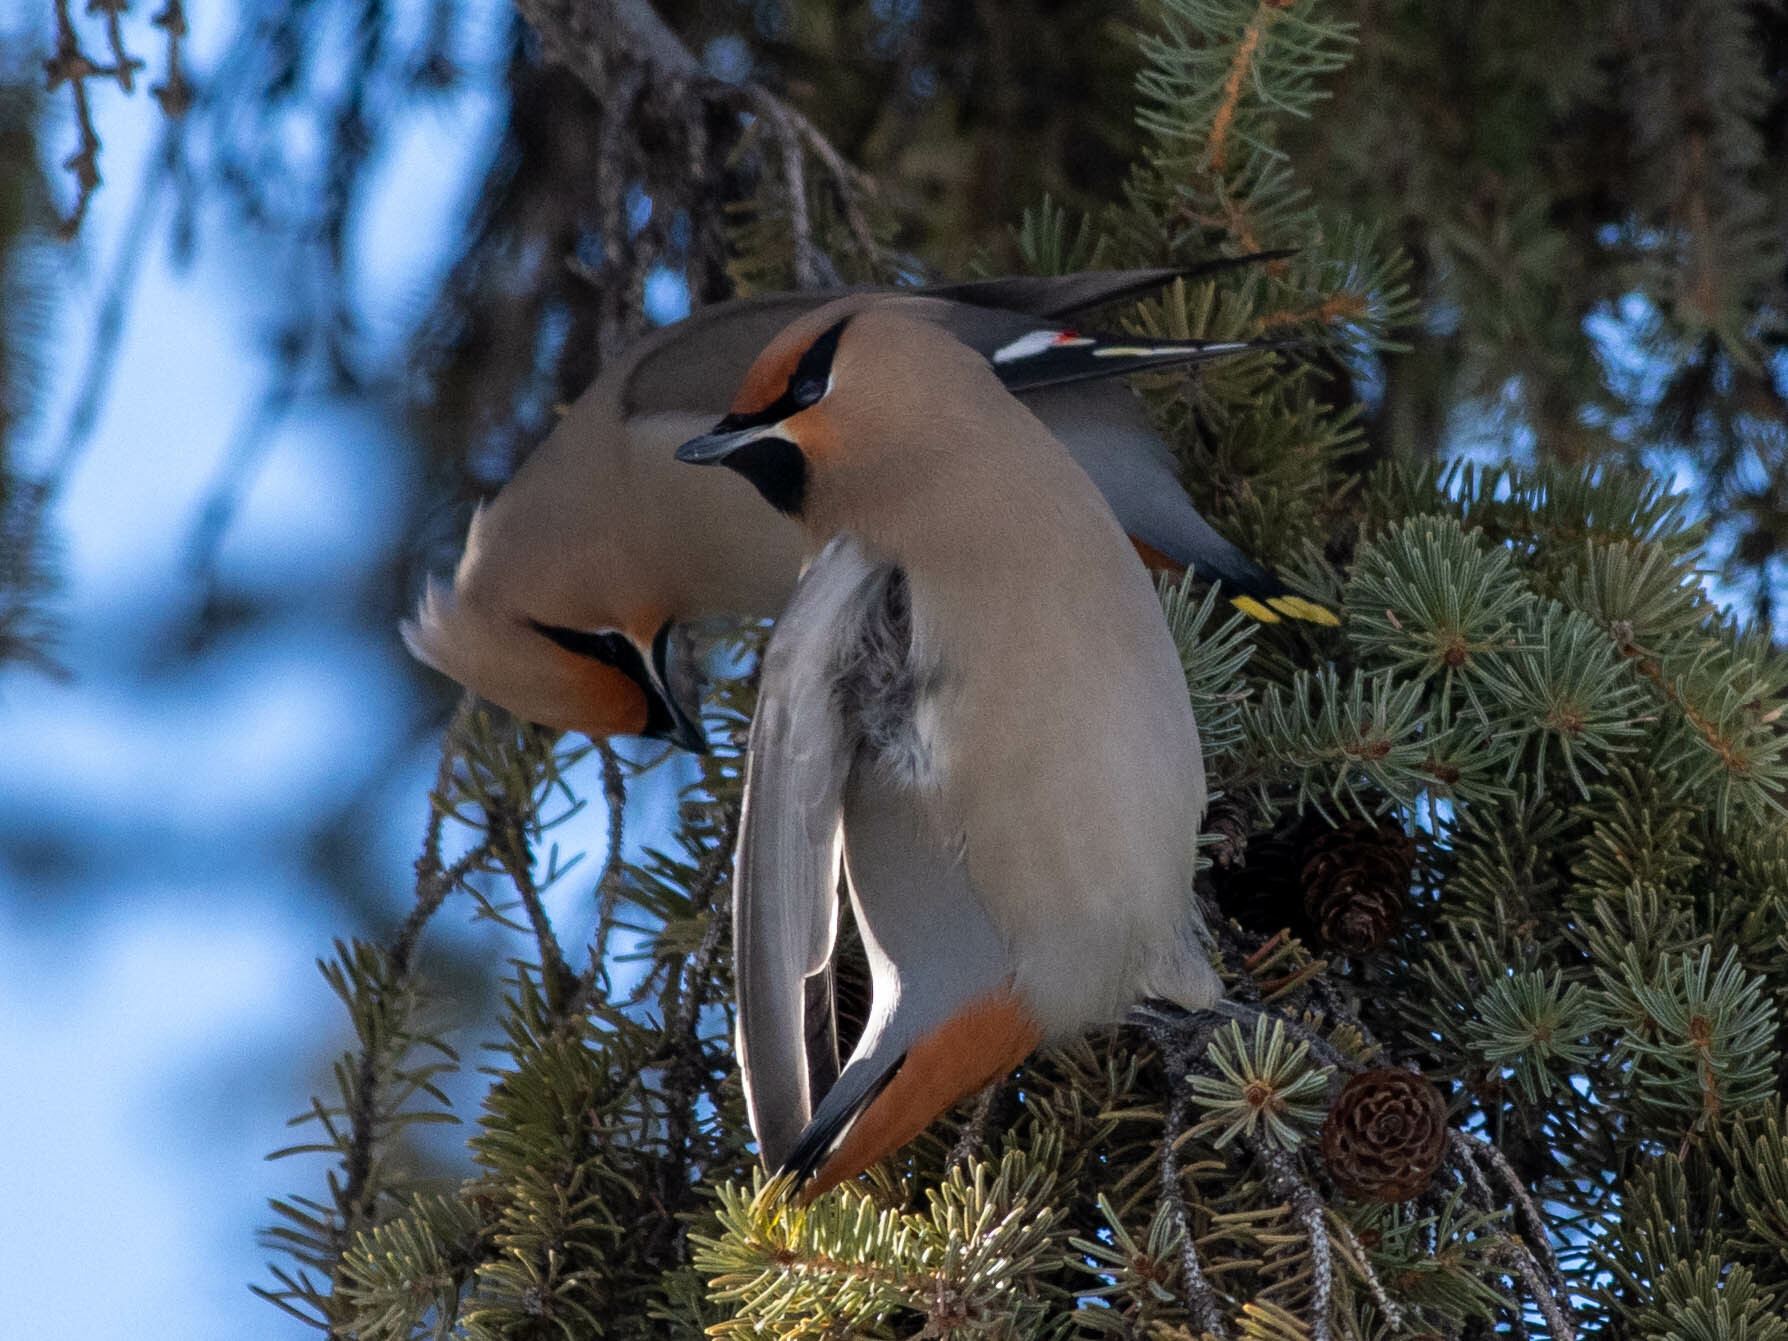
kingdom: Animalia
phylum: Chordata
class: Aves
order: Passeriformes
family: Bombycillidae
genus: Bombycilla
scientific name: Bombycilla garrulus
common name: Bohemian waxwing
